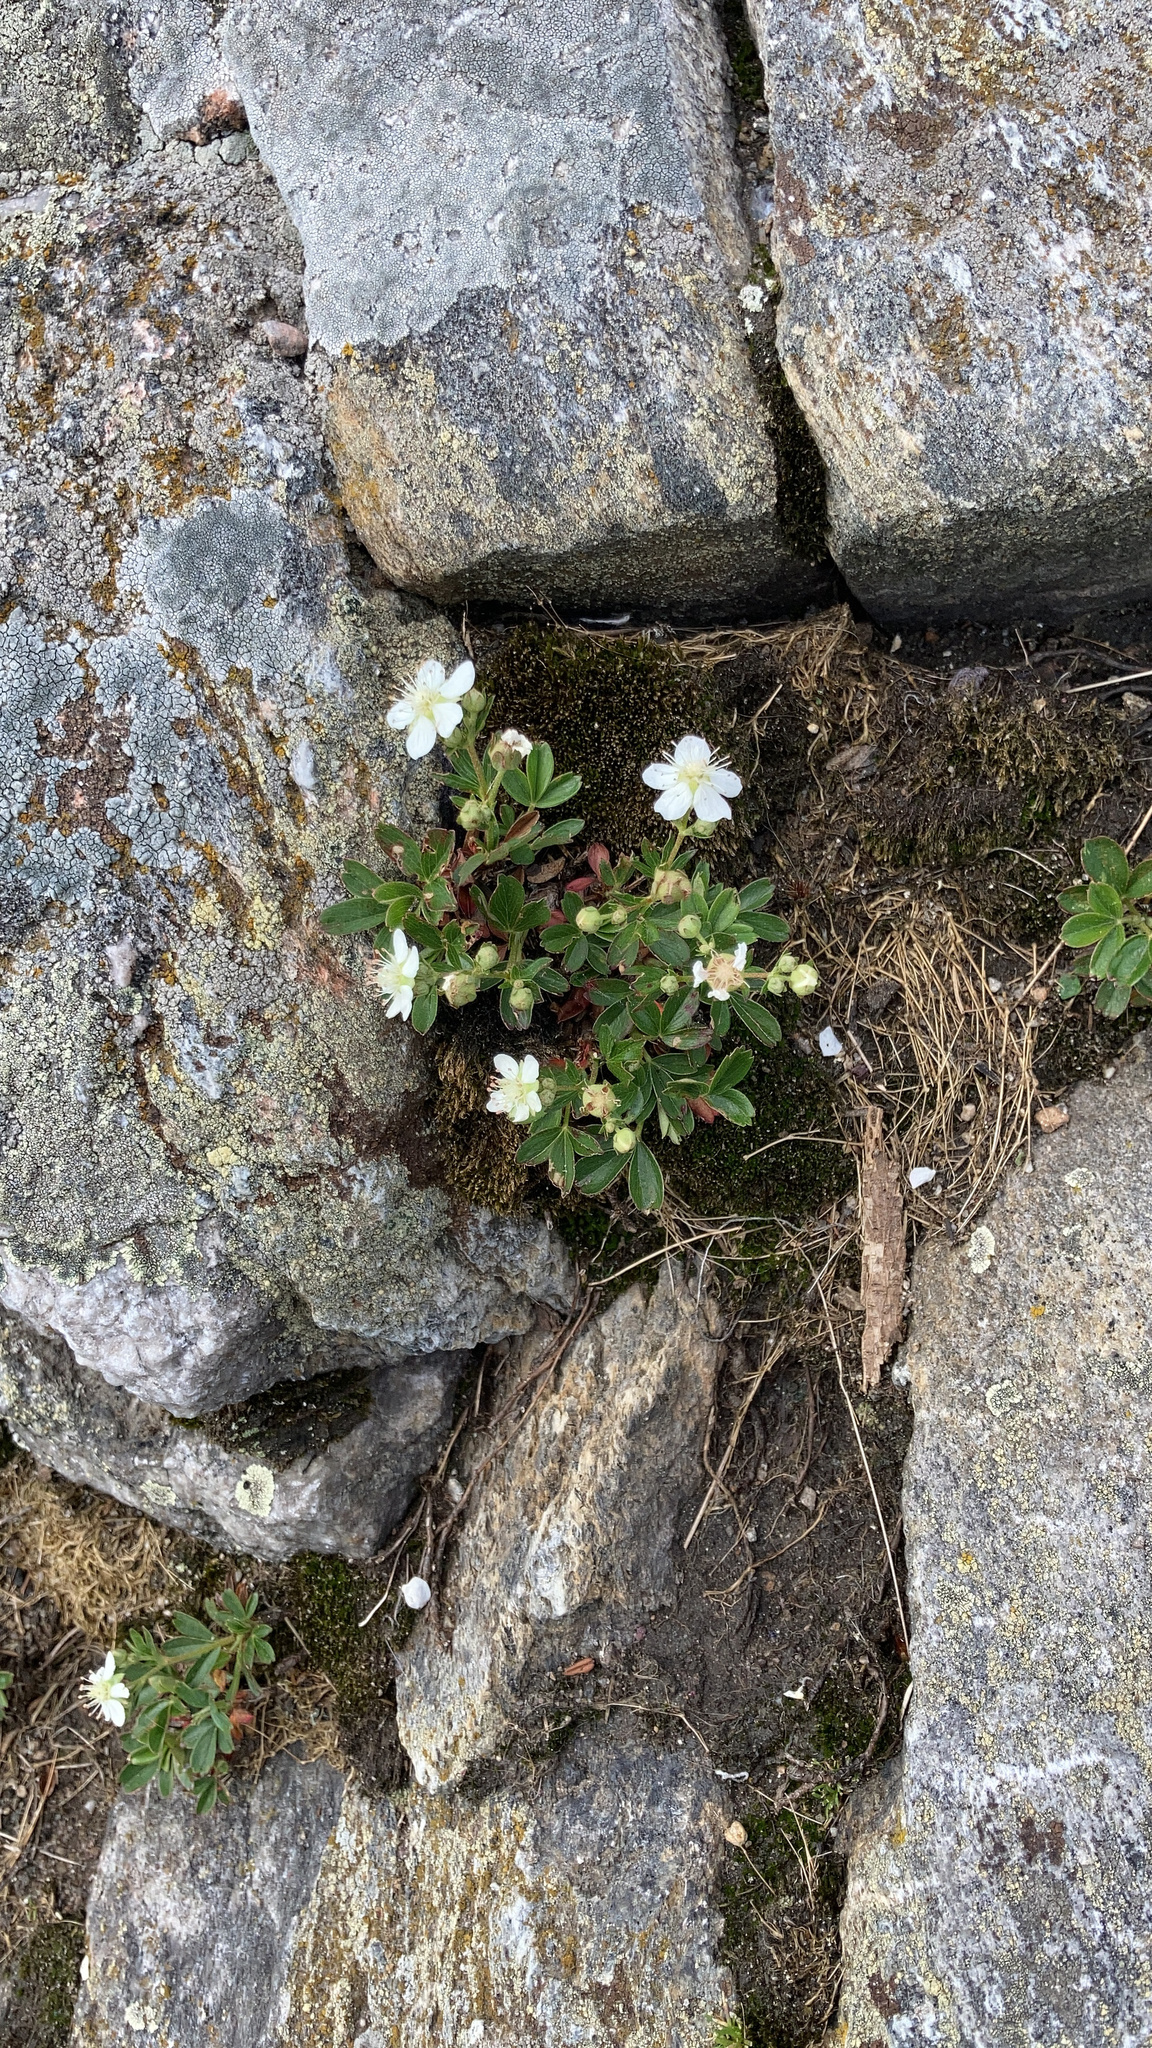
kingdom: Plantae
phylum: Tracheophyta
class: Magnoliopsida
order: Rosales
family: Rosaceae
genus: Sibbaldia
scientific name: Sibbaldia tridentata
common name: Three-toothed cinquefoil
